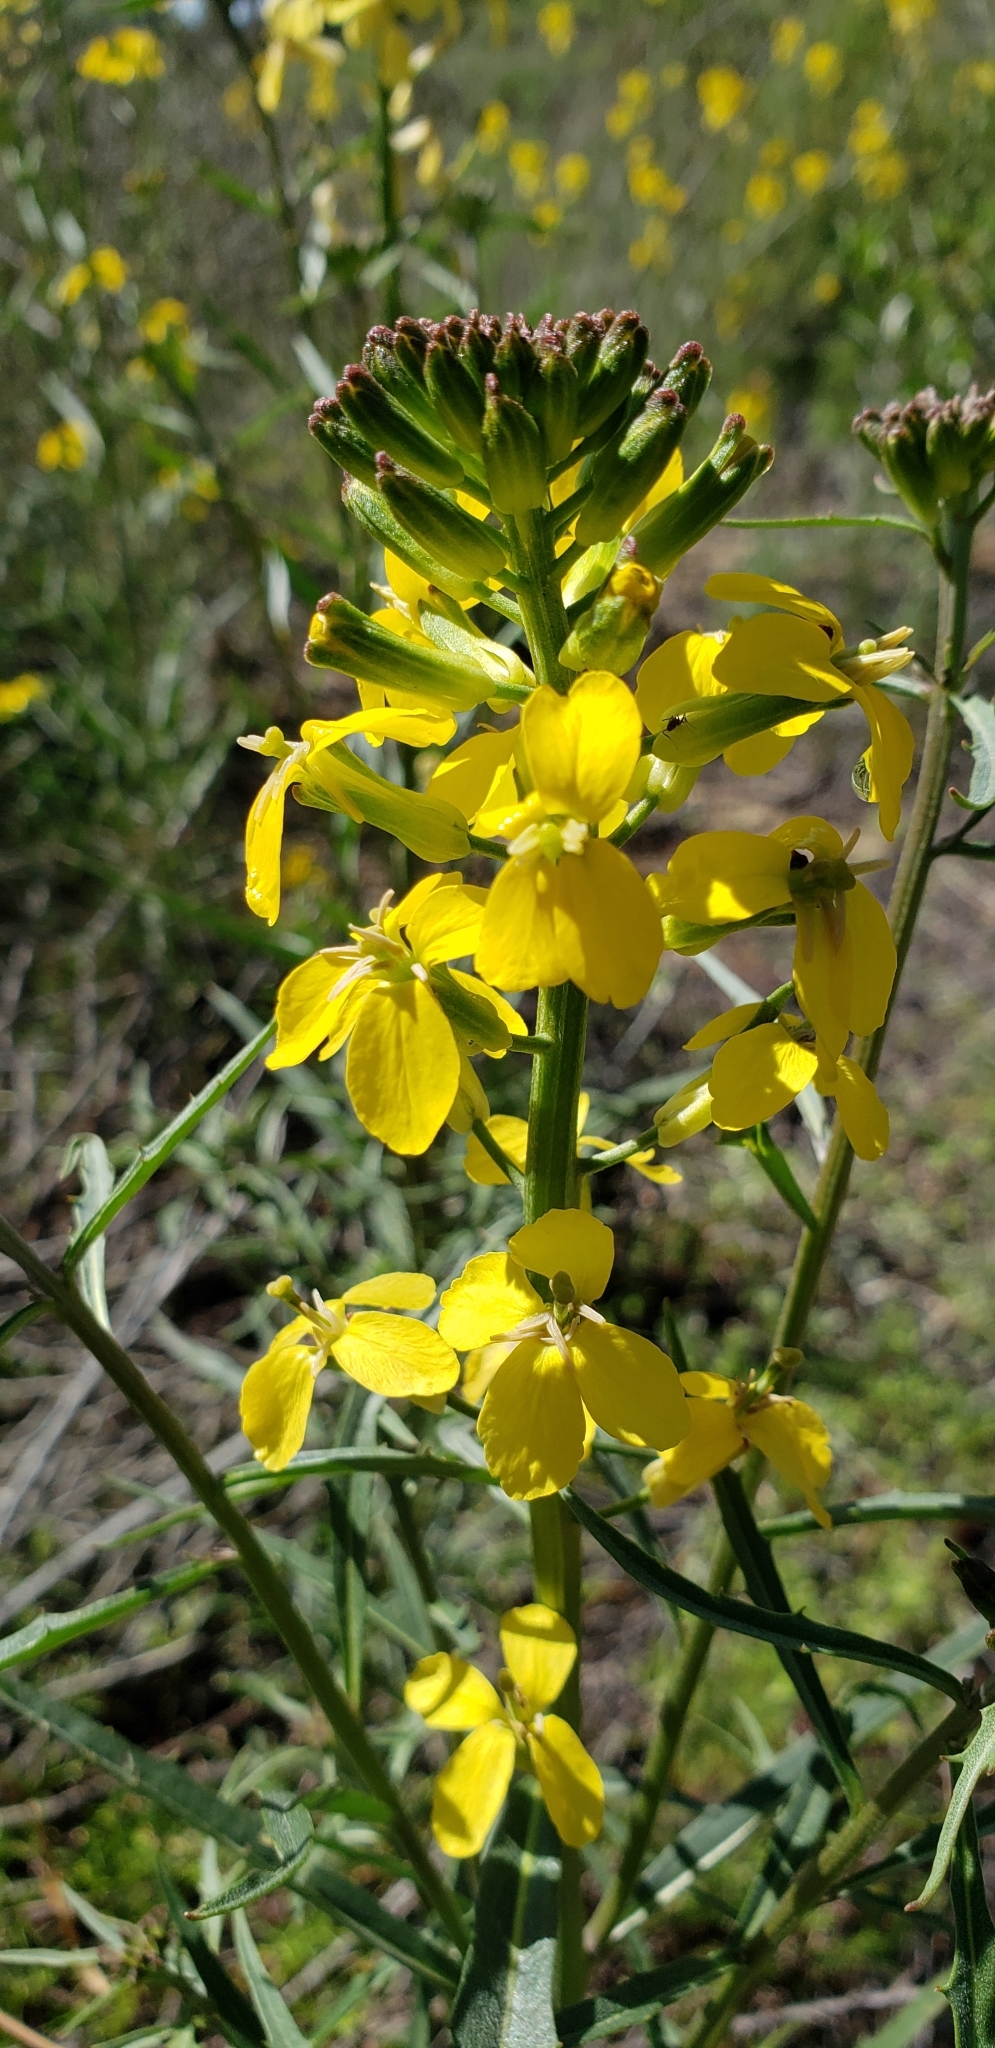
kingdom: Plantae
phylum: Tracheophyta
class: Magnoliopsida
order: Brassicales
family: Brassicaceae
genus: Erysimum
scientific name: Erysimum capitatum
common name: Western wallflower
